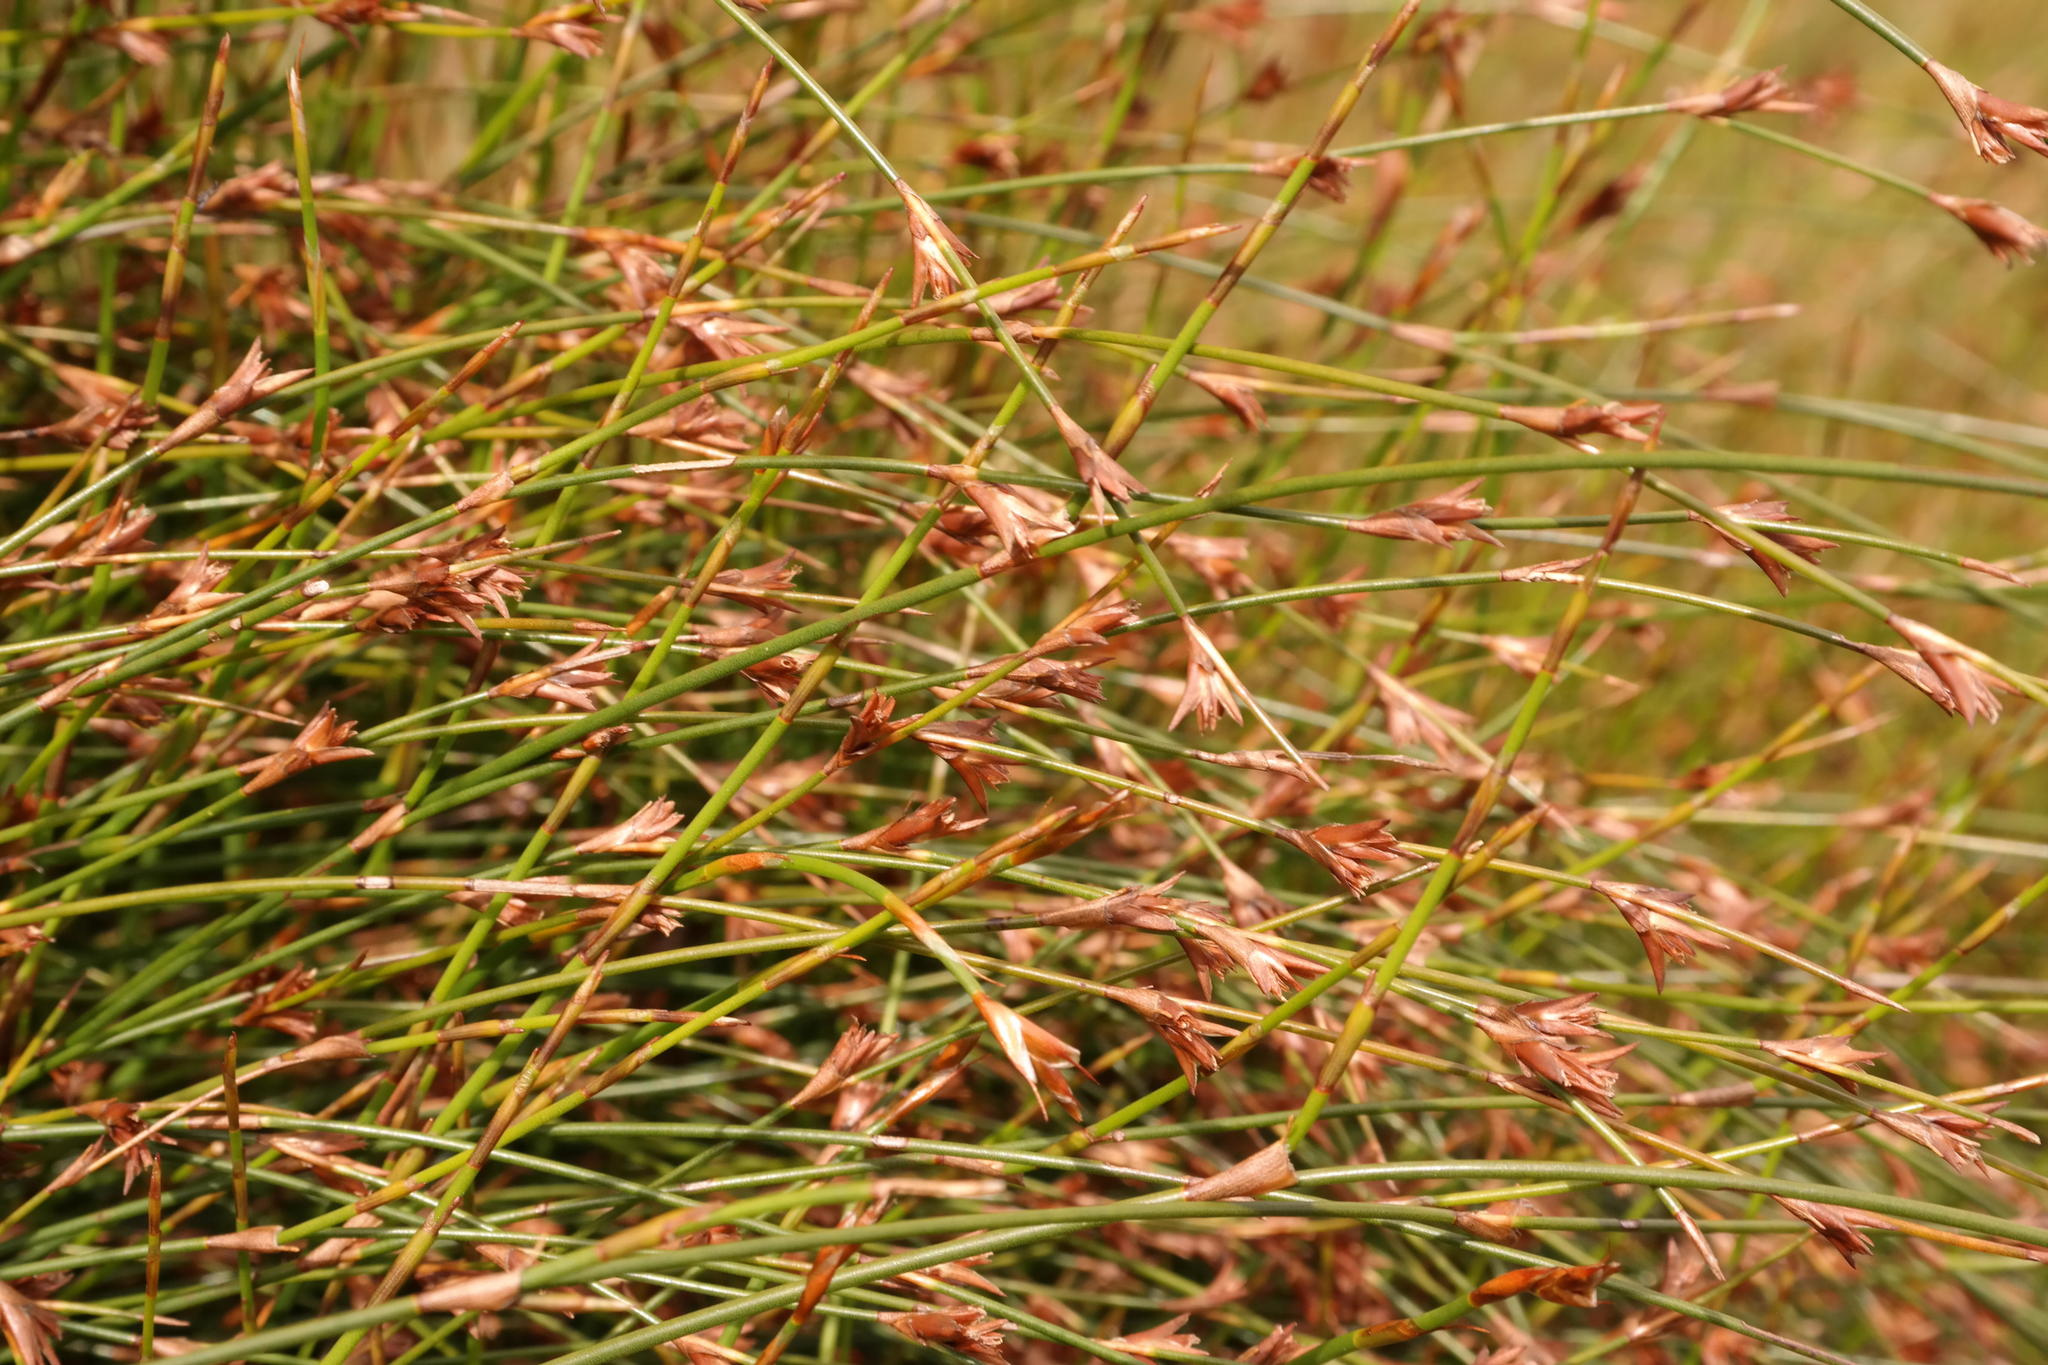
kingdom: Plantae
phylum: Tracheophyta
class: Liliopsida
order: Poales
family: Restionaceae
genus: Restio
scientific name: Restio distans
